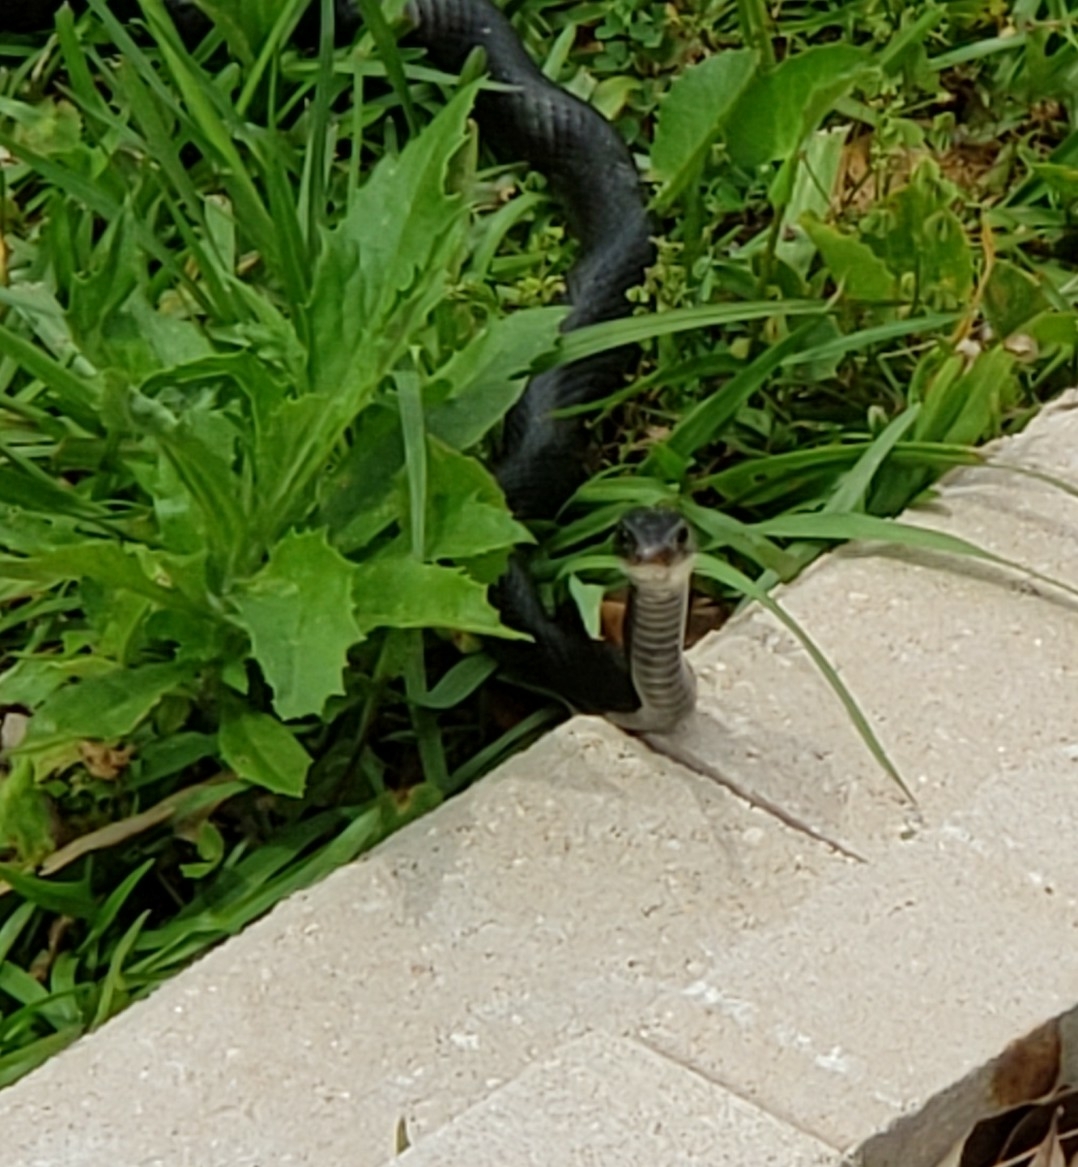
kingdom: Animalia
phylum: Chordata
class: Squamata
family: Colubridae
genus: Coluber
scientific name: Coluber constrictor
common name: Eastern racer
